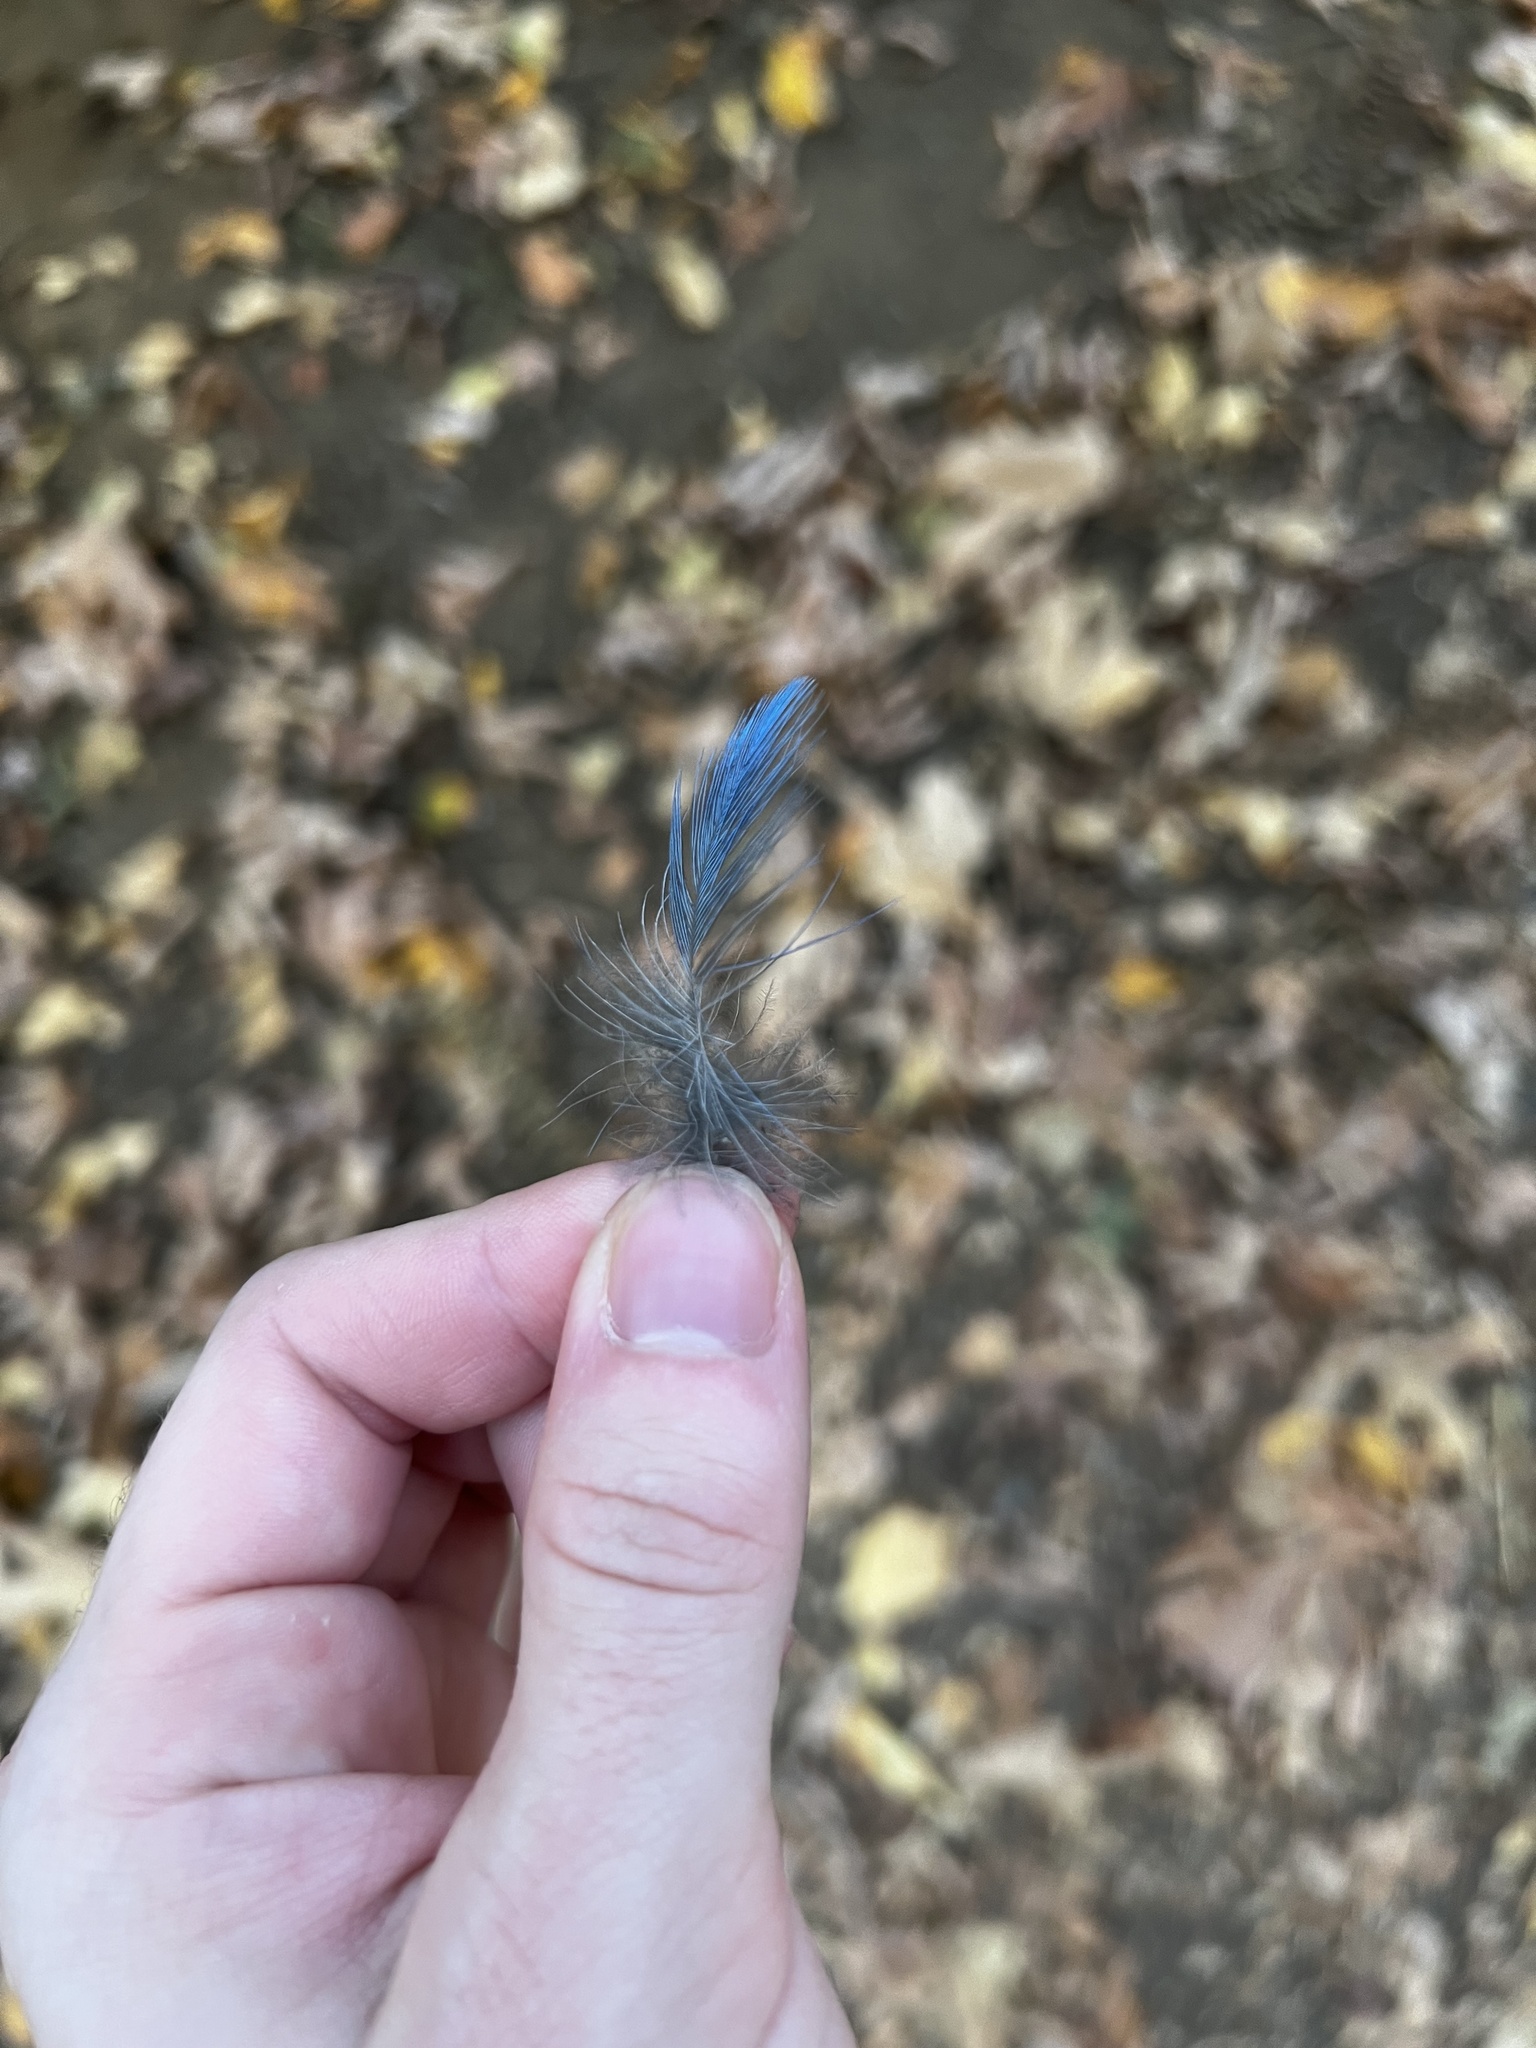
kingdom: Animalia
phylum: Chordata
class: Aves
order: Passeriformes
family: Corvidae
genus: Cyanocitta
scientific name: Cyanocitta stelleri
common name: Steller's jay
